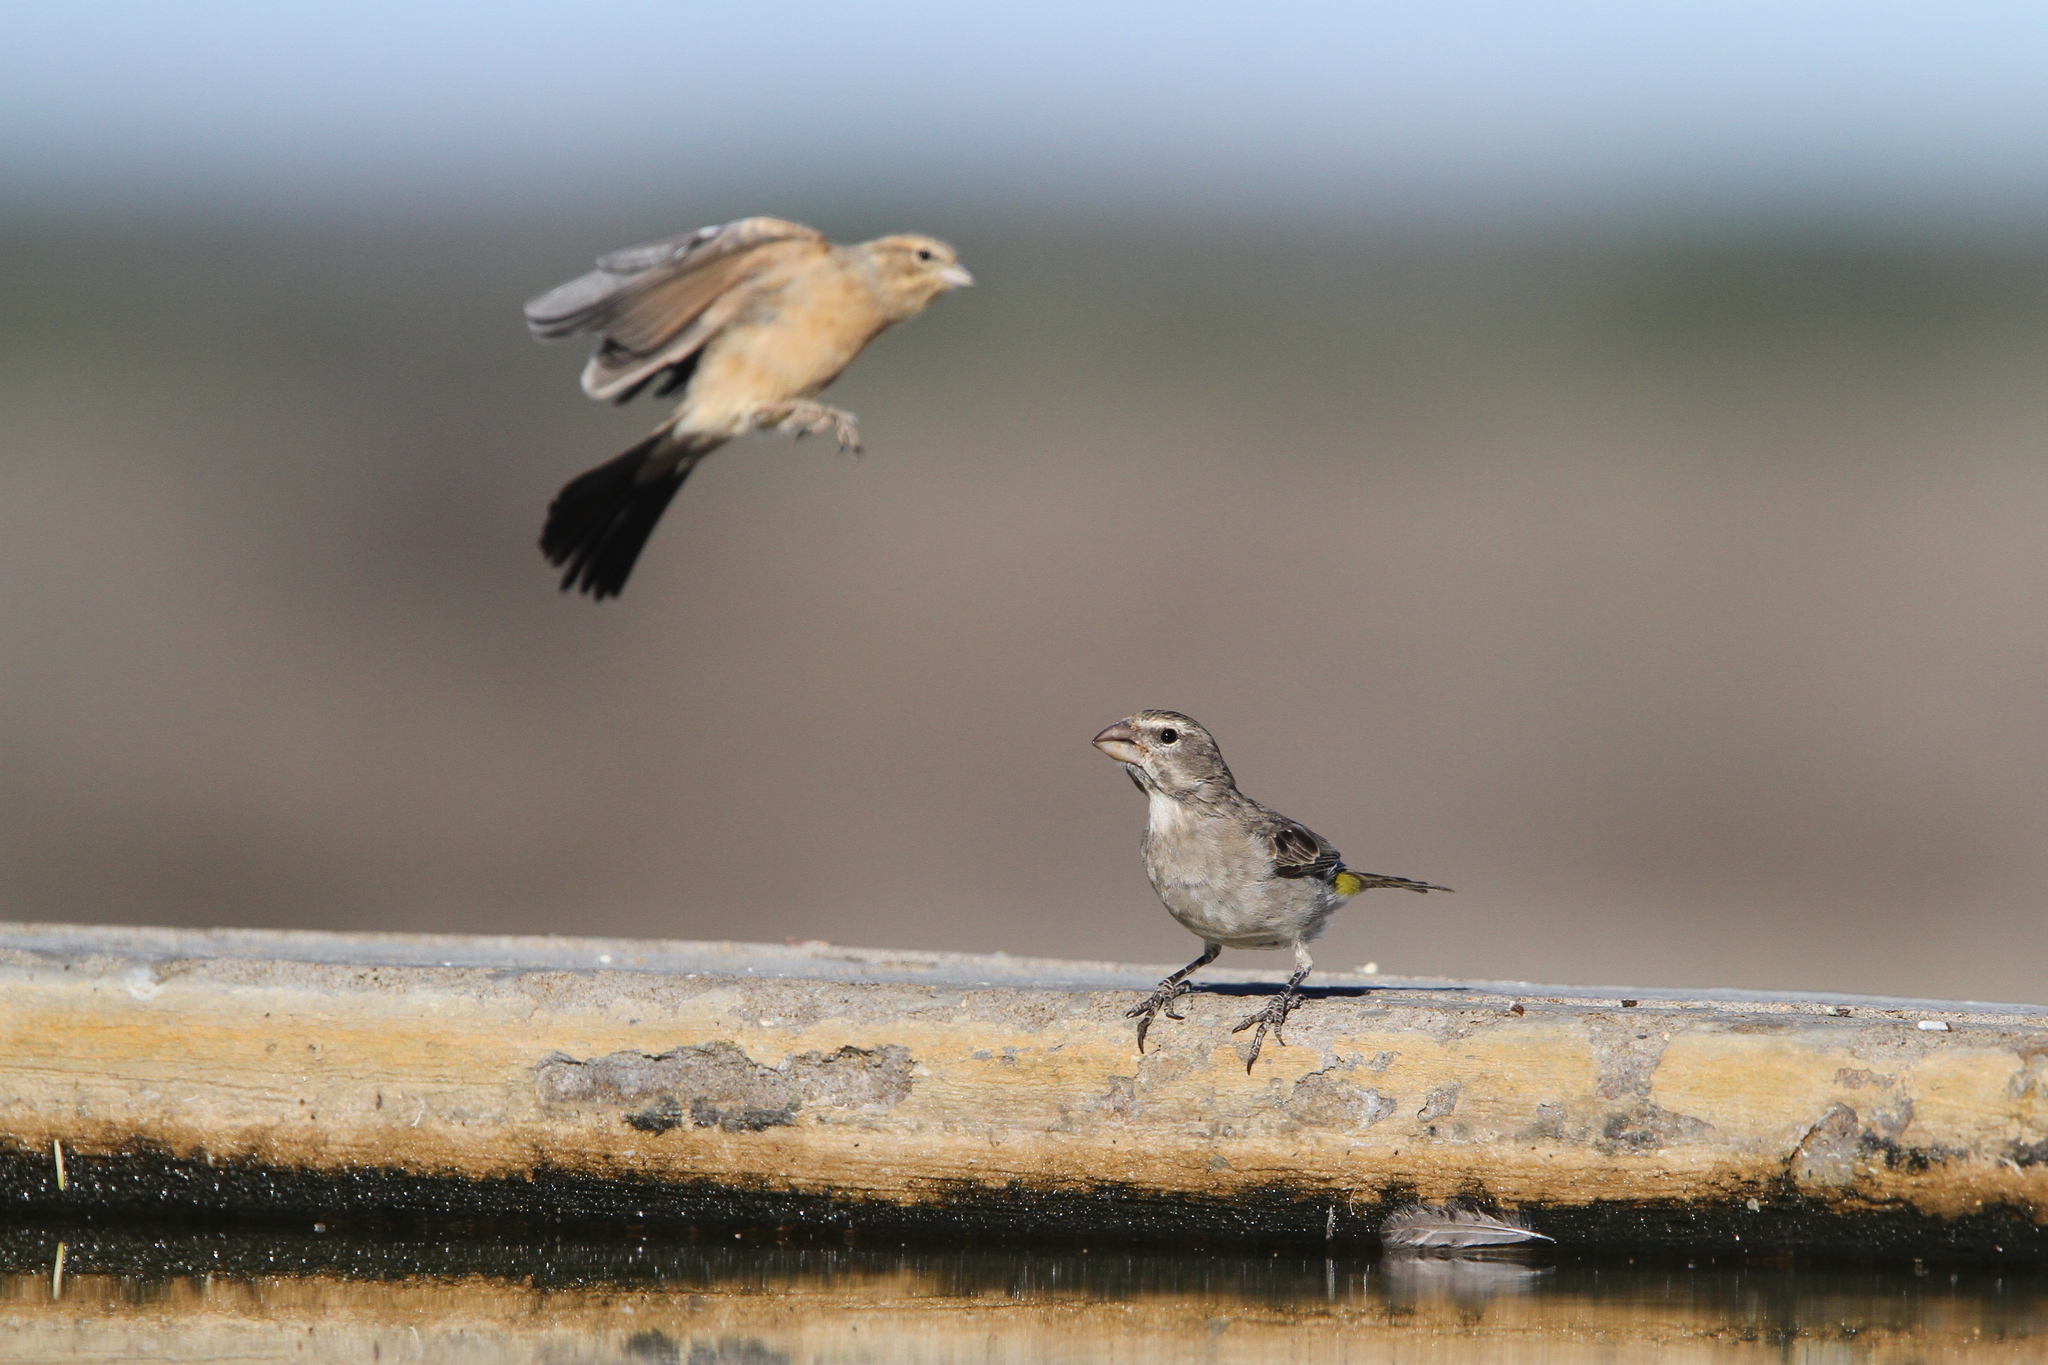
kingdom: Animalia
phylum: Chordata
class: Aves
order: Passeriformes
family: Fringillidae
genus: Crithagra
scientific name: Crithagra albogularis
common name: White-throated canary
